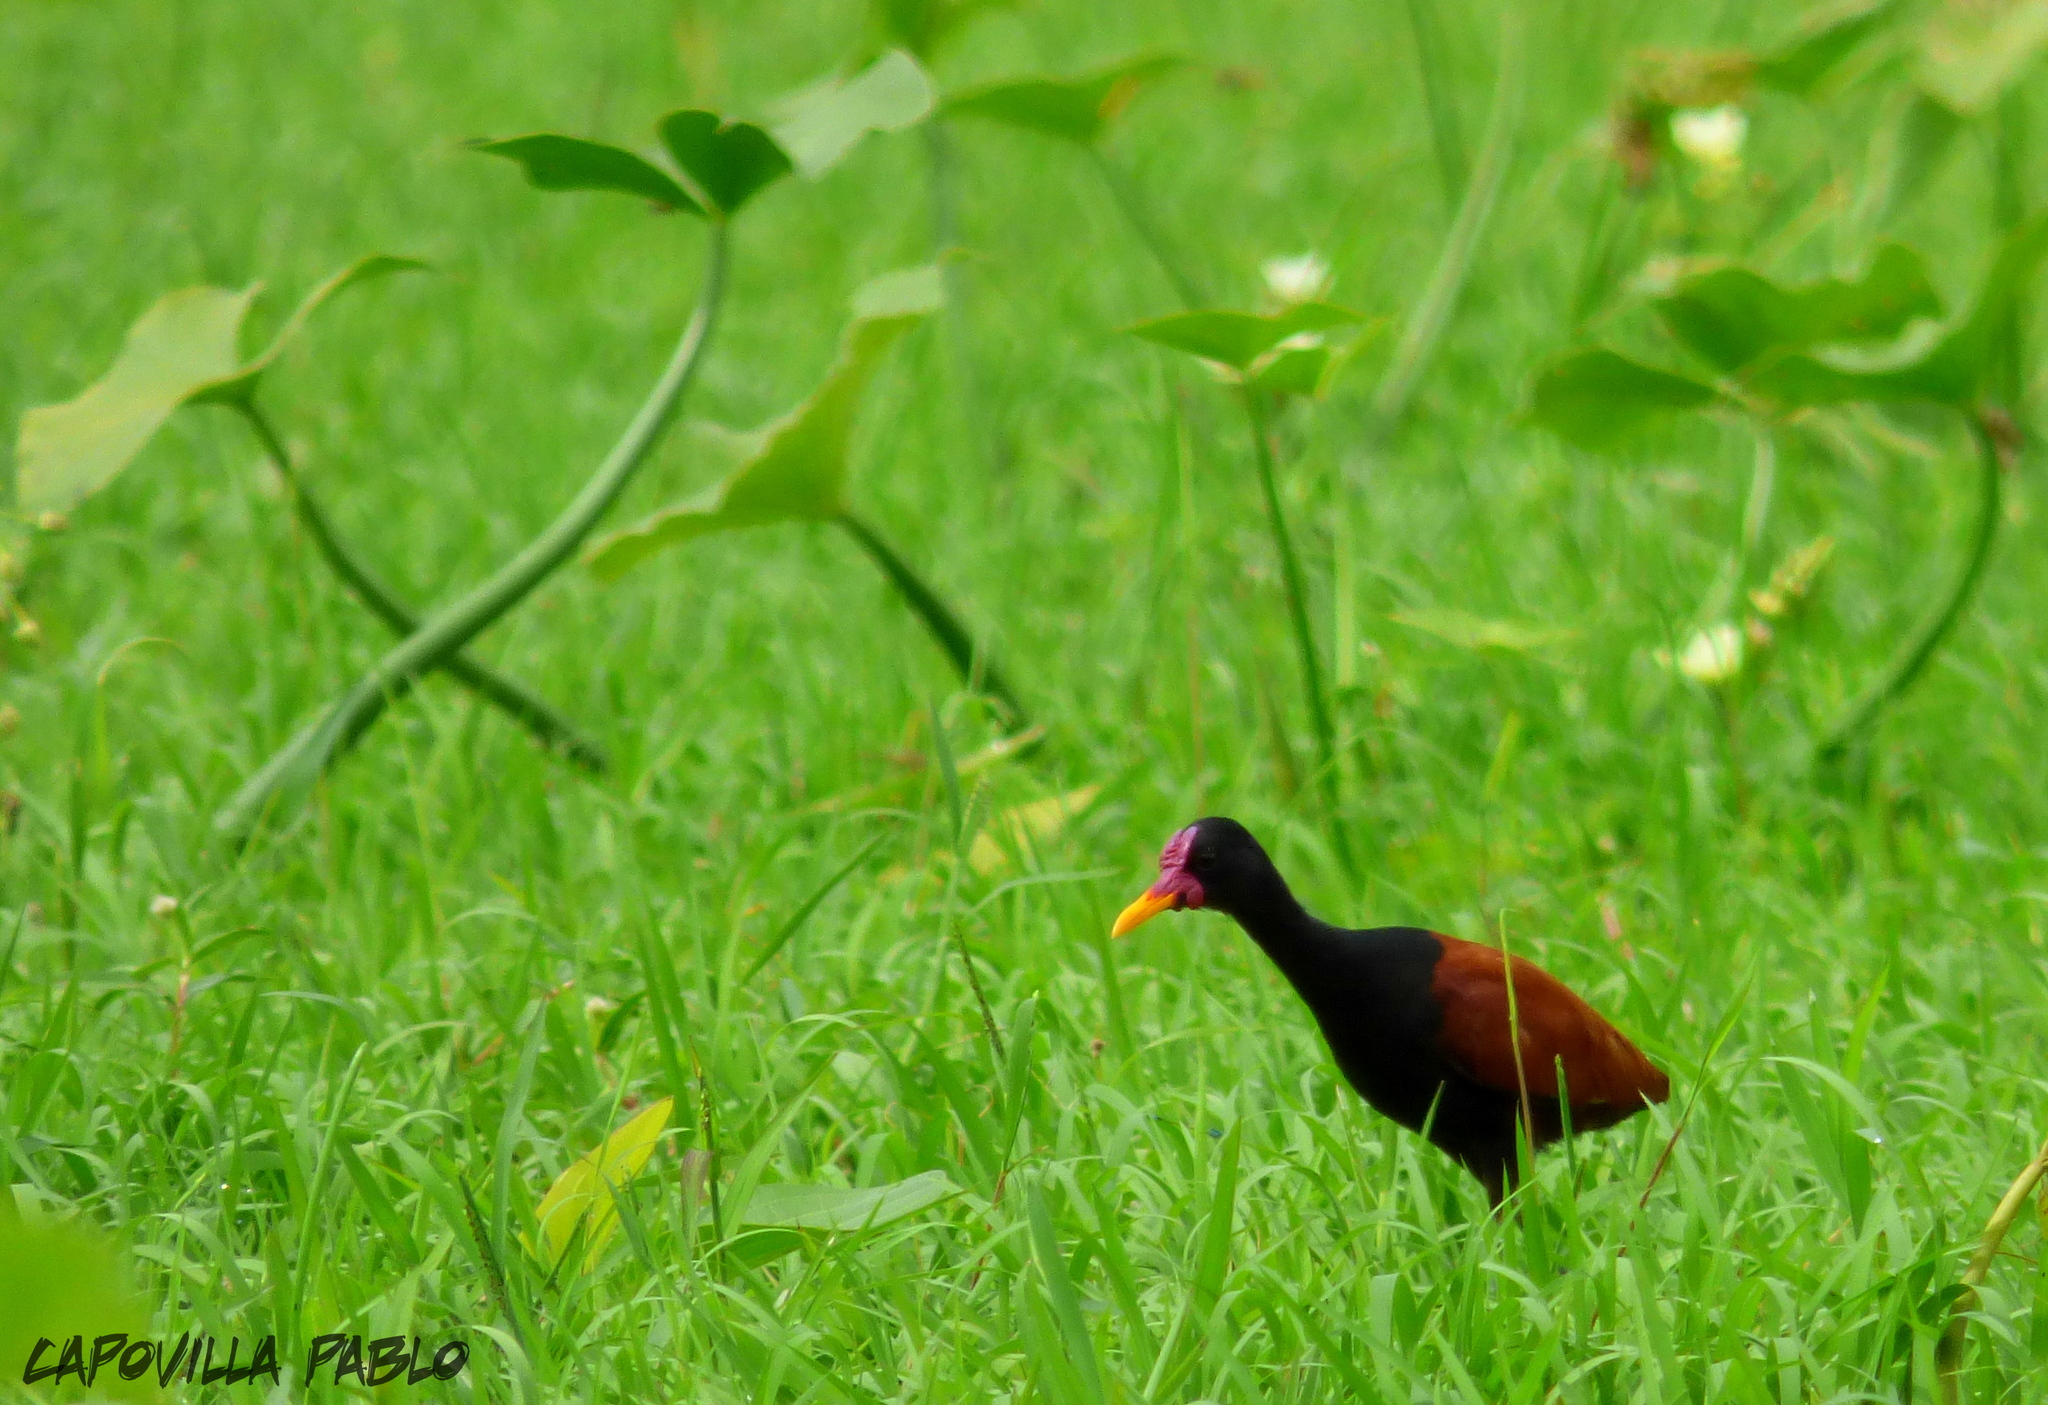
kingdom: Animalia
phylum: Chordata
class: Aves
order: Charadriiformes
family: Jacanidae
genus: Jacana
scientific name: Jacana jacana
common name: Wattled jacana
